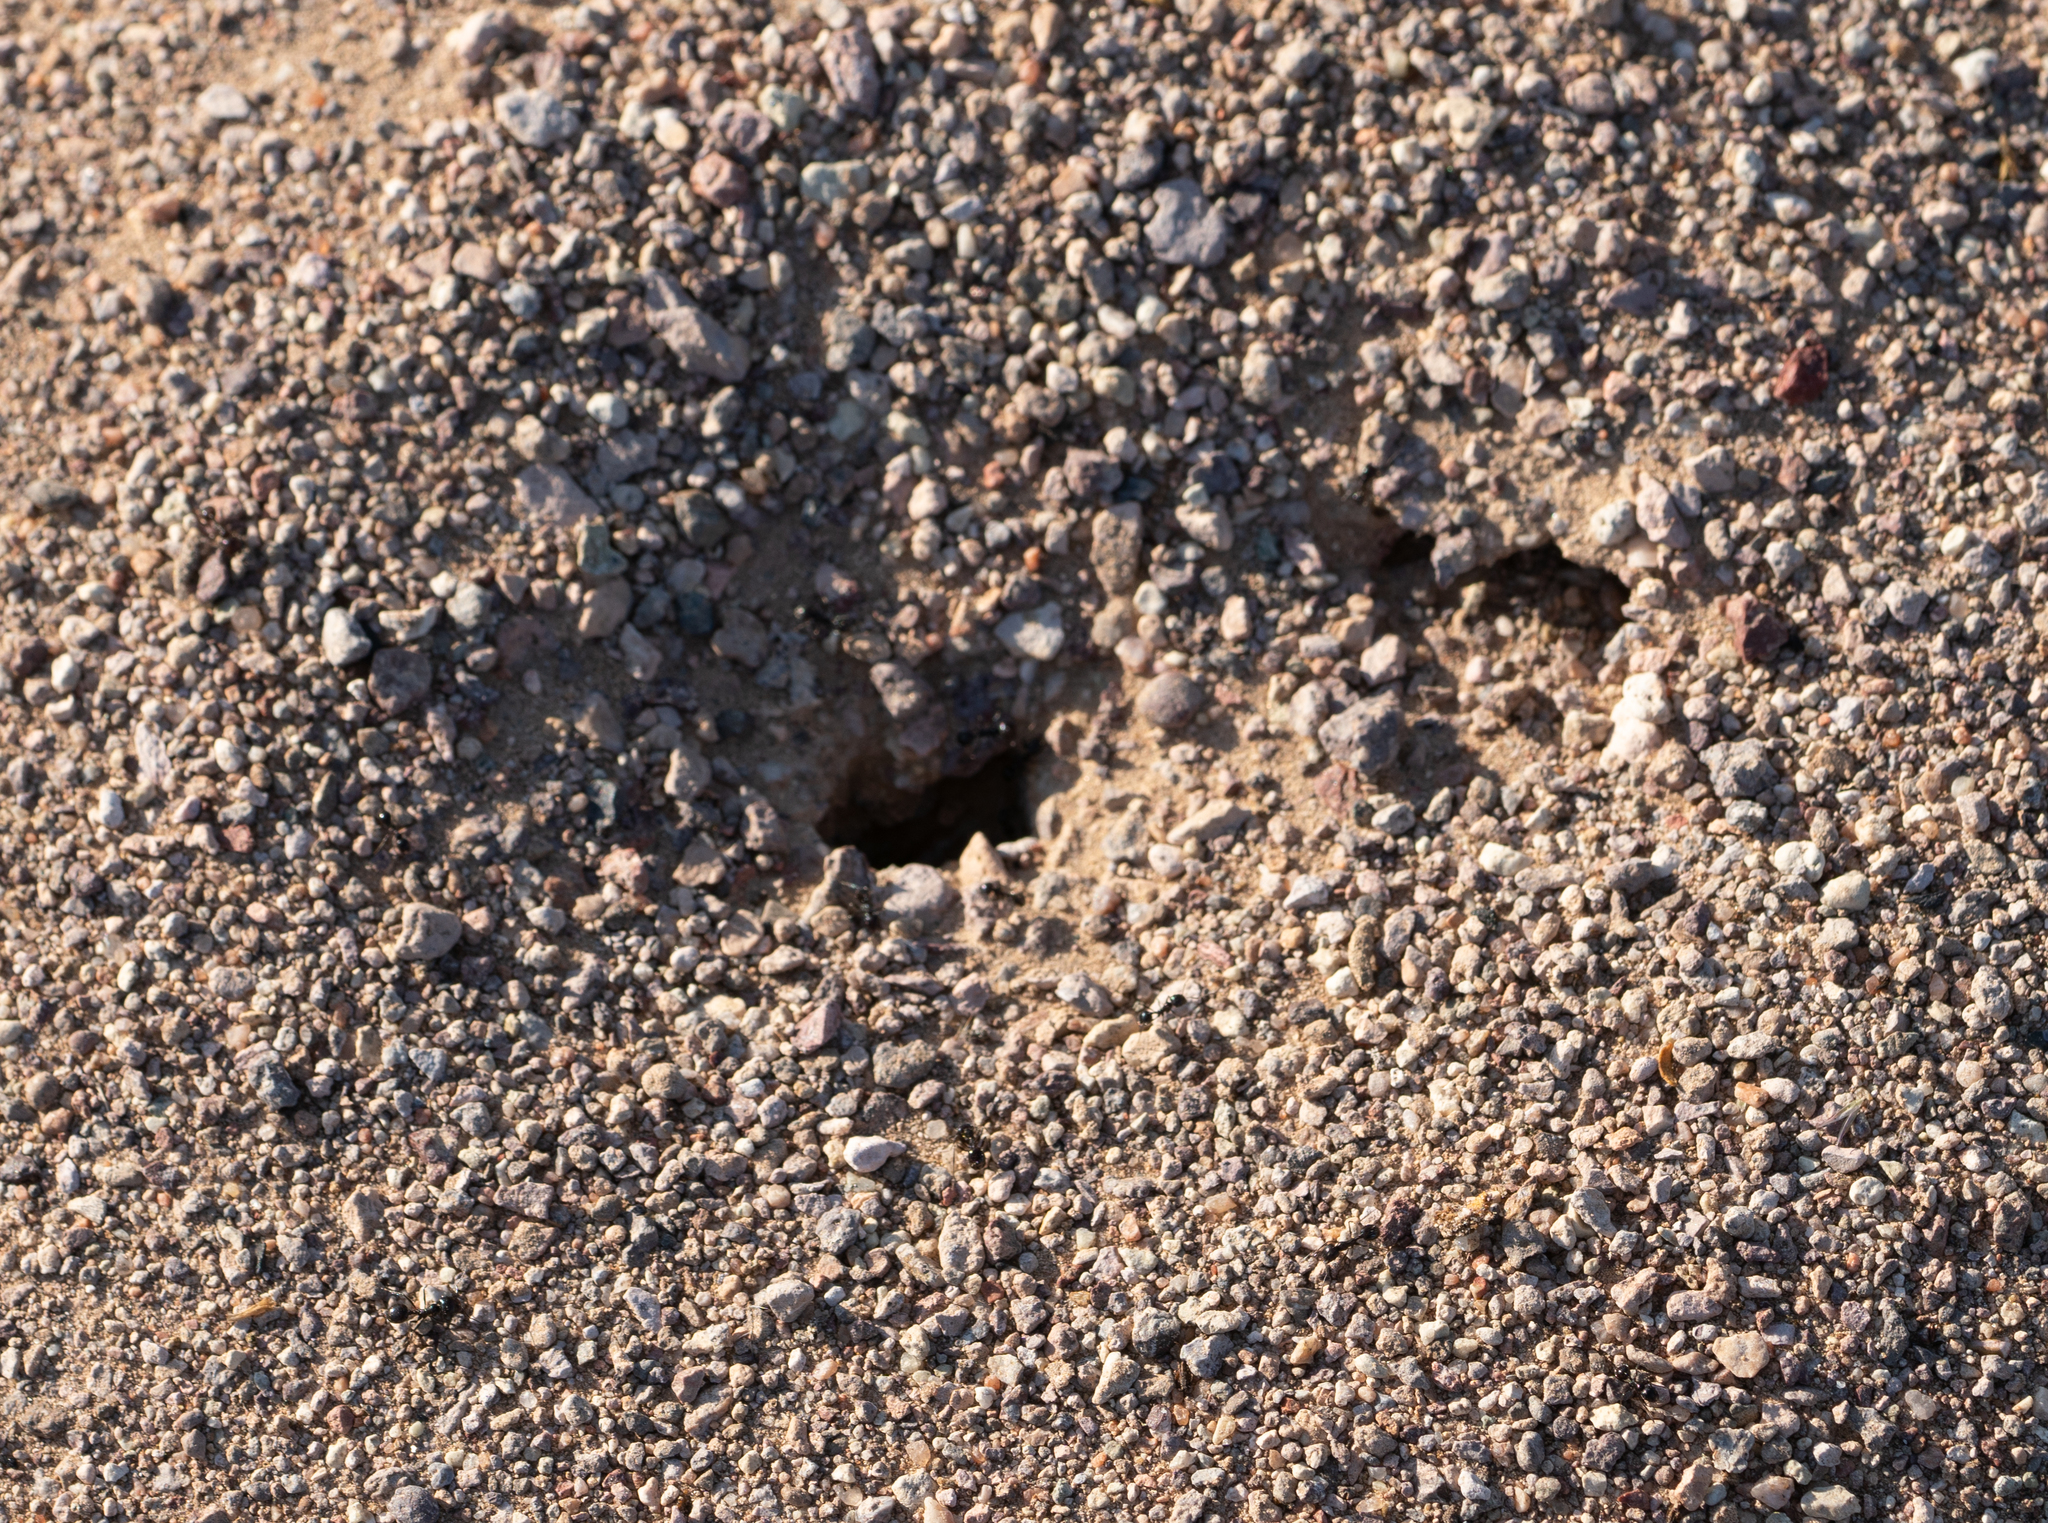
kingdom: Animalia
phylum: Arthropoda
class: Insecta
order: Hymenoptera
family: Formicidae
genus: Messor
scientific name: Messor pergandei
